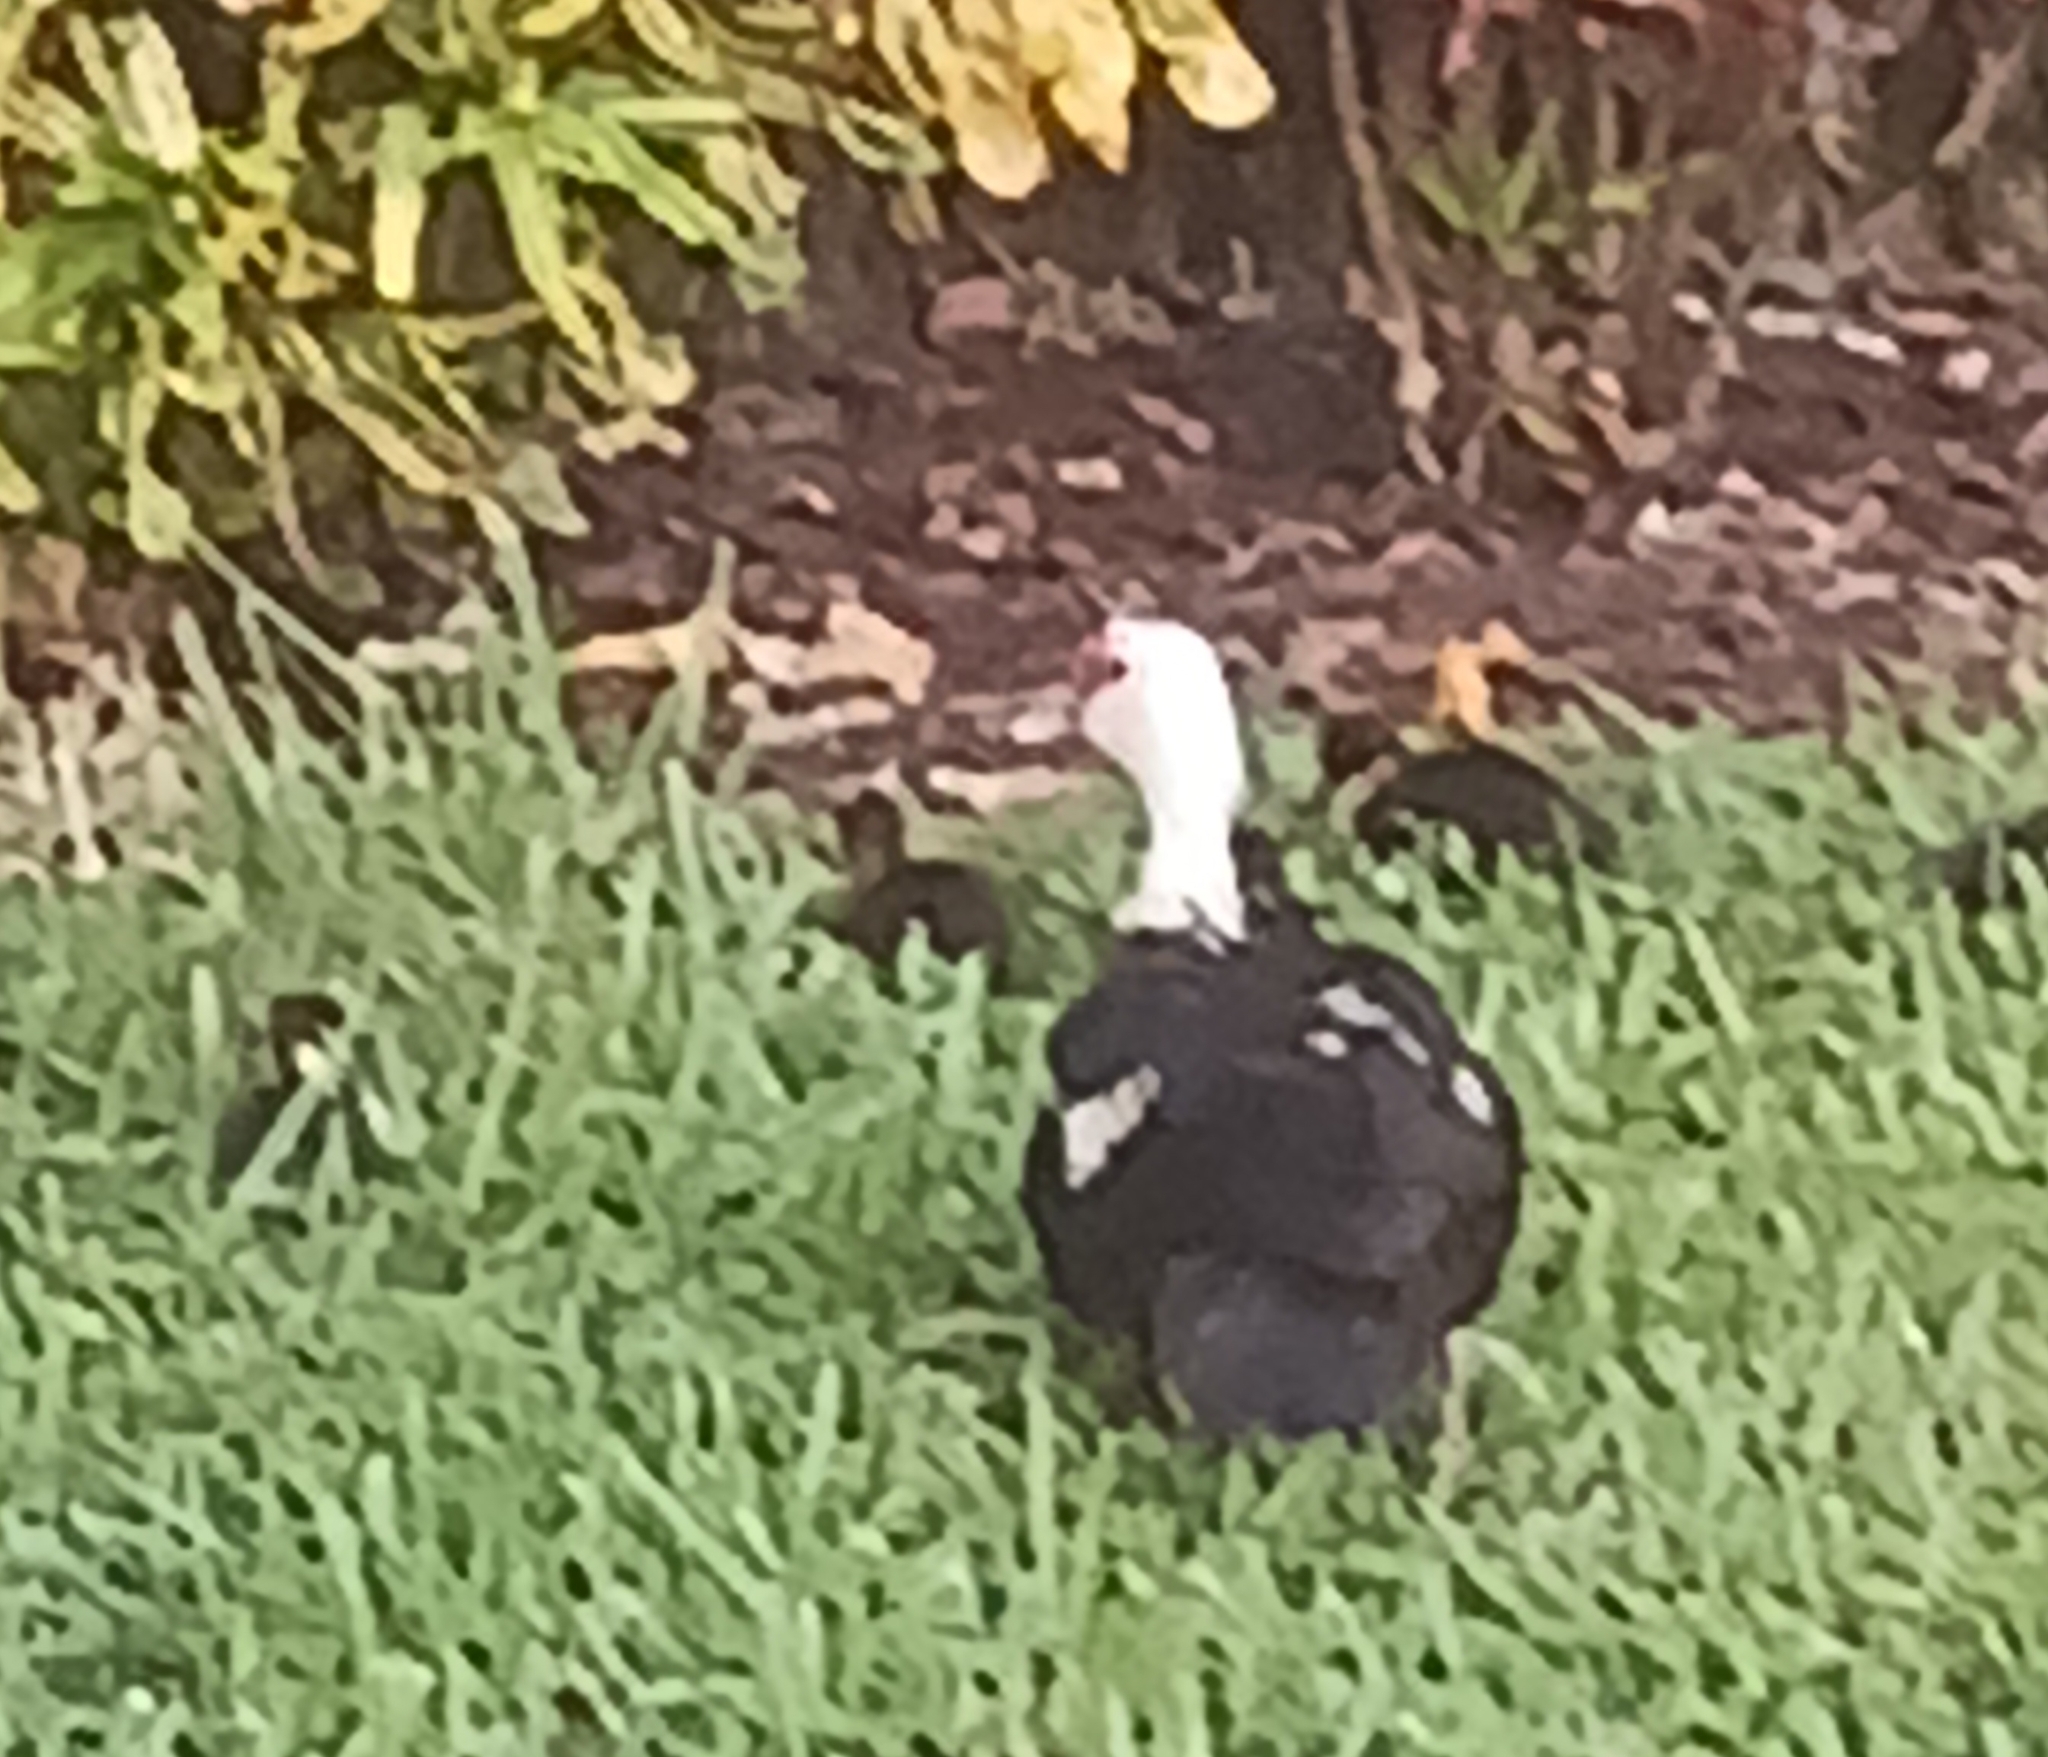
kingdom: Animalia
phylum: Chordata
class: Aves
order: Anseriformes
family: Anatidae
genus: Cairina
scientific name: Cairina moschata
